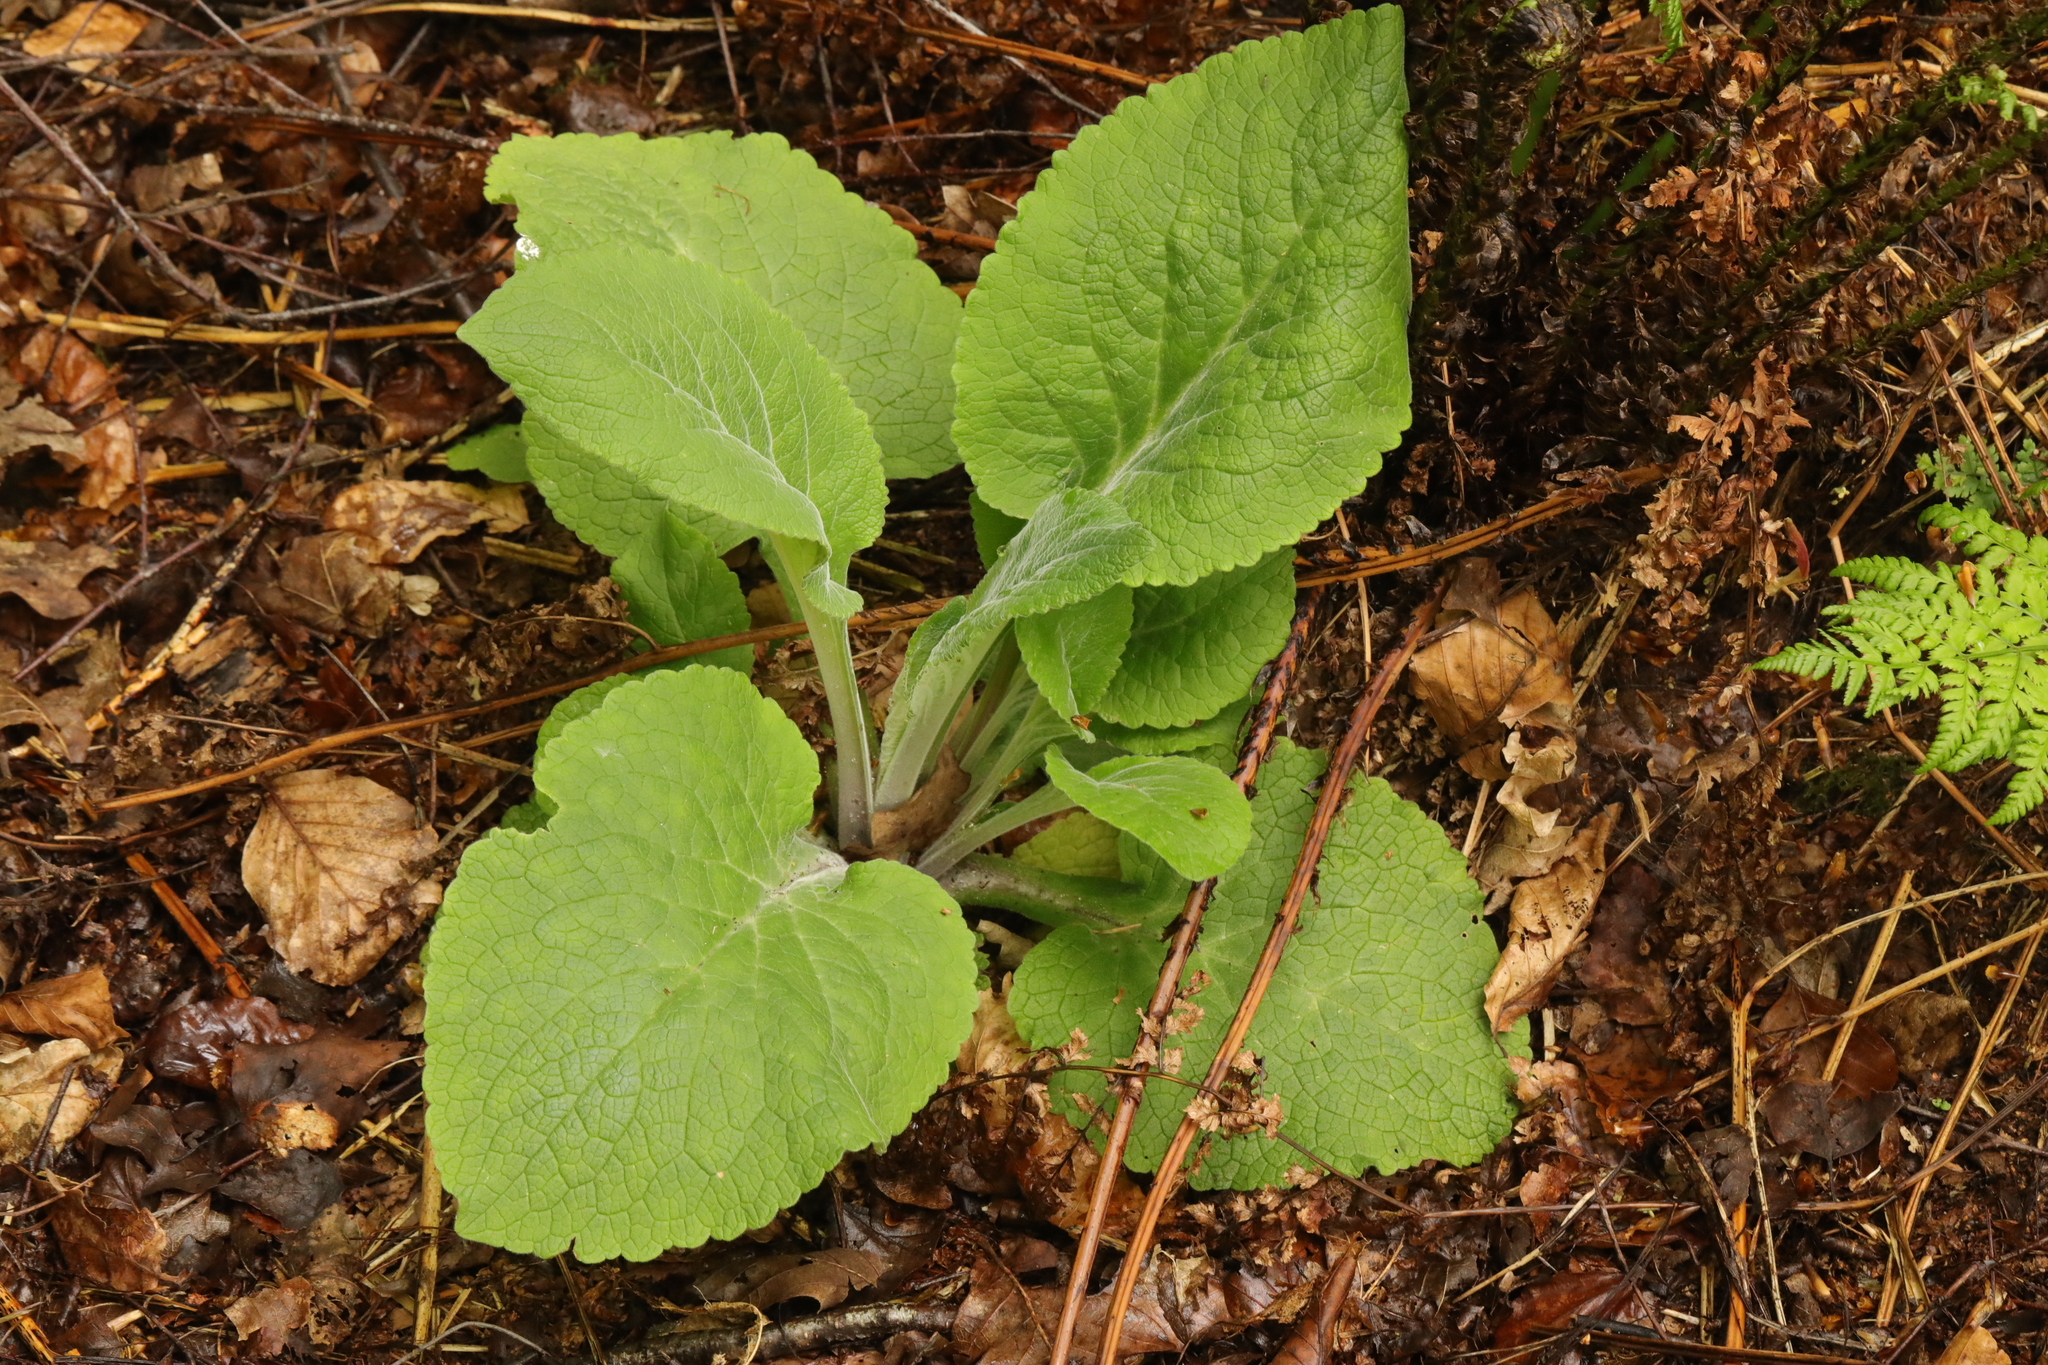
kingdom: Plantae
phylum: Tracheophyta
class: Magnoliopsida
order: Lamiales
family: Plantaginaceae
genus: Digitalis
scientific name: Digitalis purpurea
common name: Foxglove
